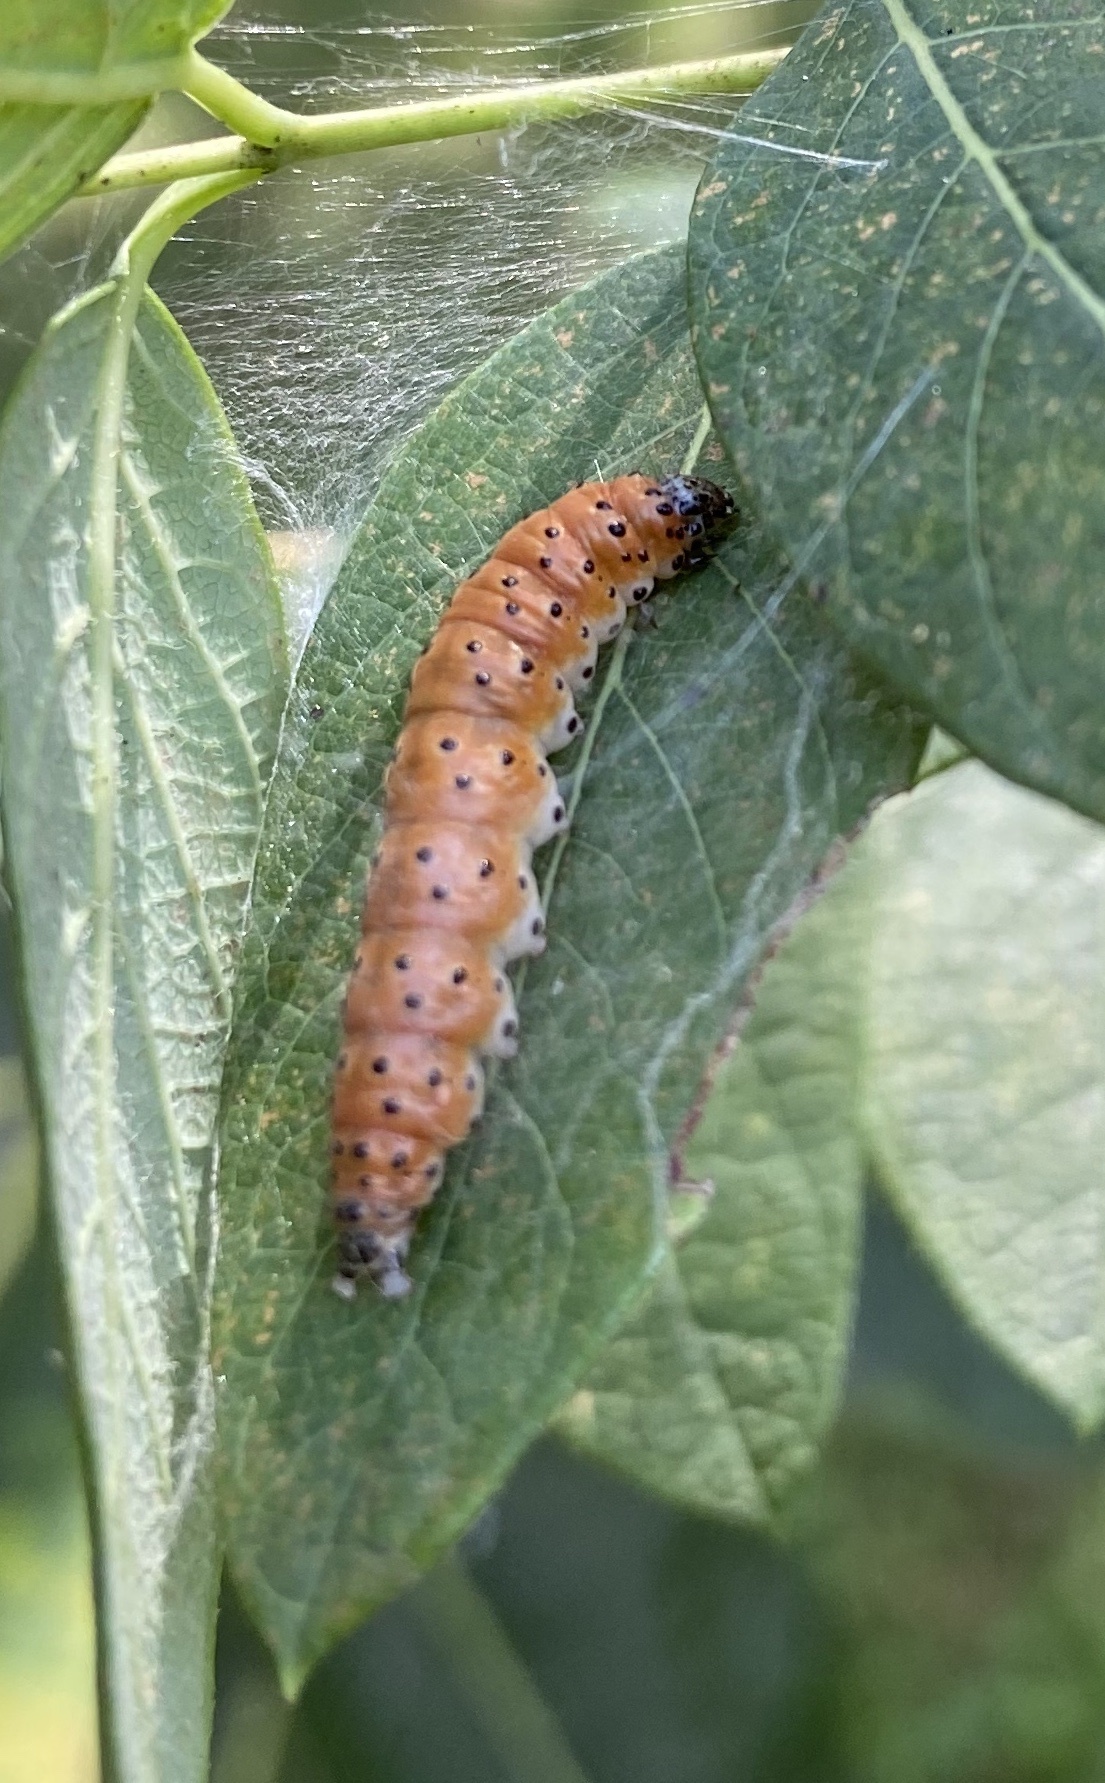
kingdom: Animalia
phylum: Arthropoda
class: Insecta
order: Lepidoptera
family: Crambidae
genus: Saucrobotys
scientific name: Saucrobotys futilalis
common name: Dogbane saucrobotys moth
